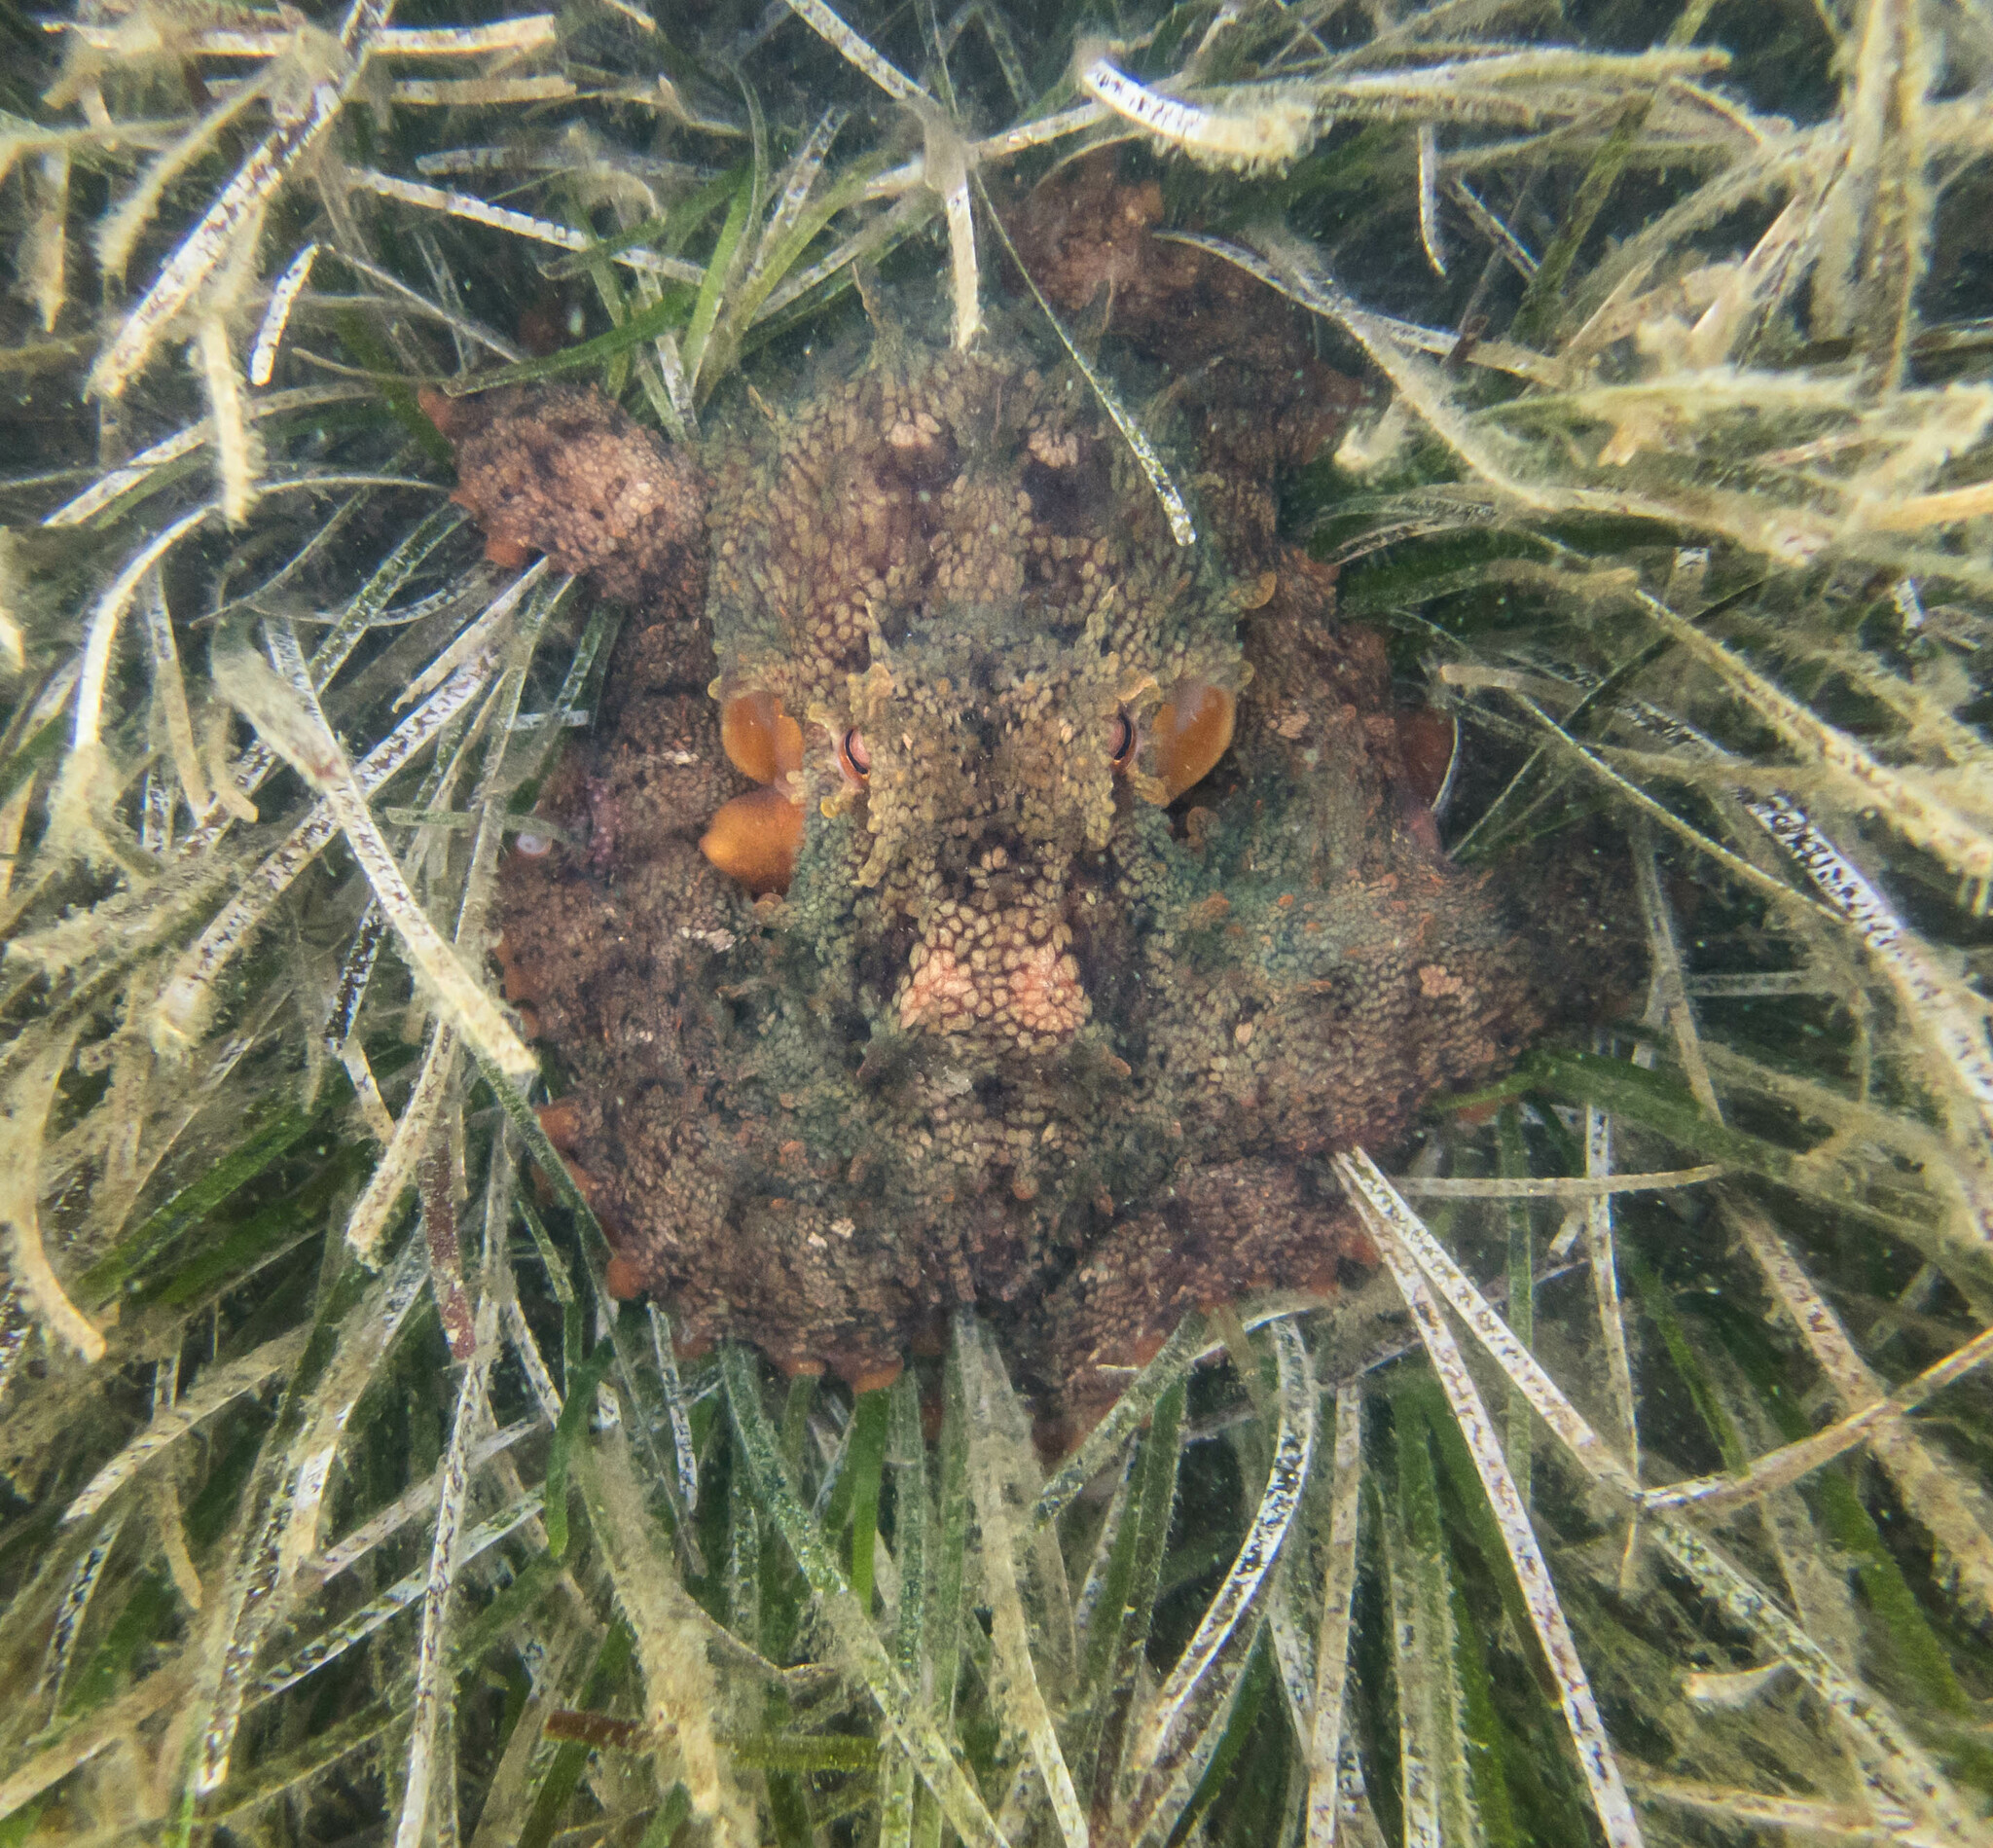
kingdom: Animalia
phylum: Mollusca
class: Cephalopoda
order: Octopoda
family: Octopodidae
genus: Octopus
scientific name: Octopus tetricus
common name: Sydney octopus
